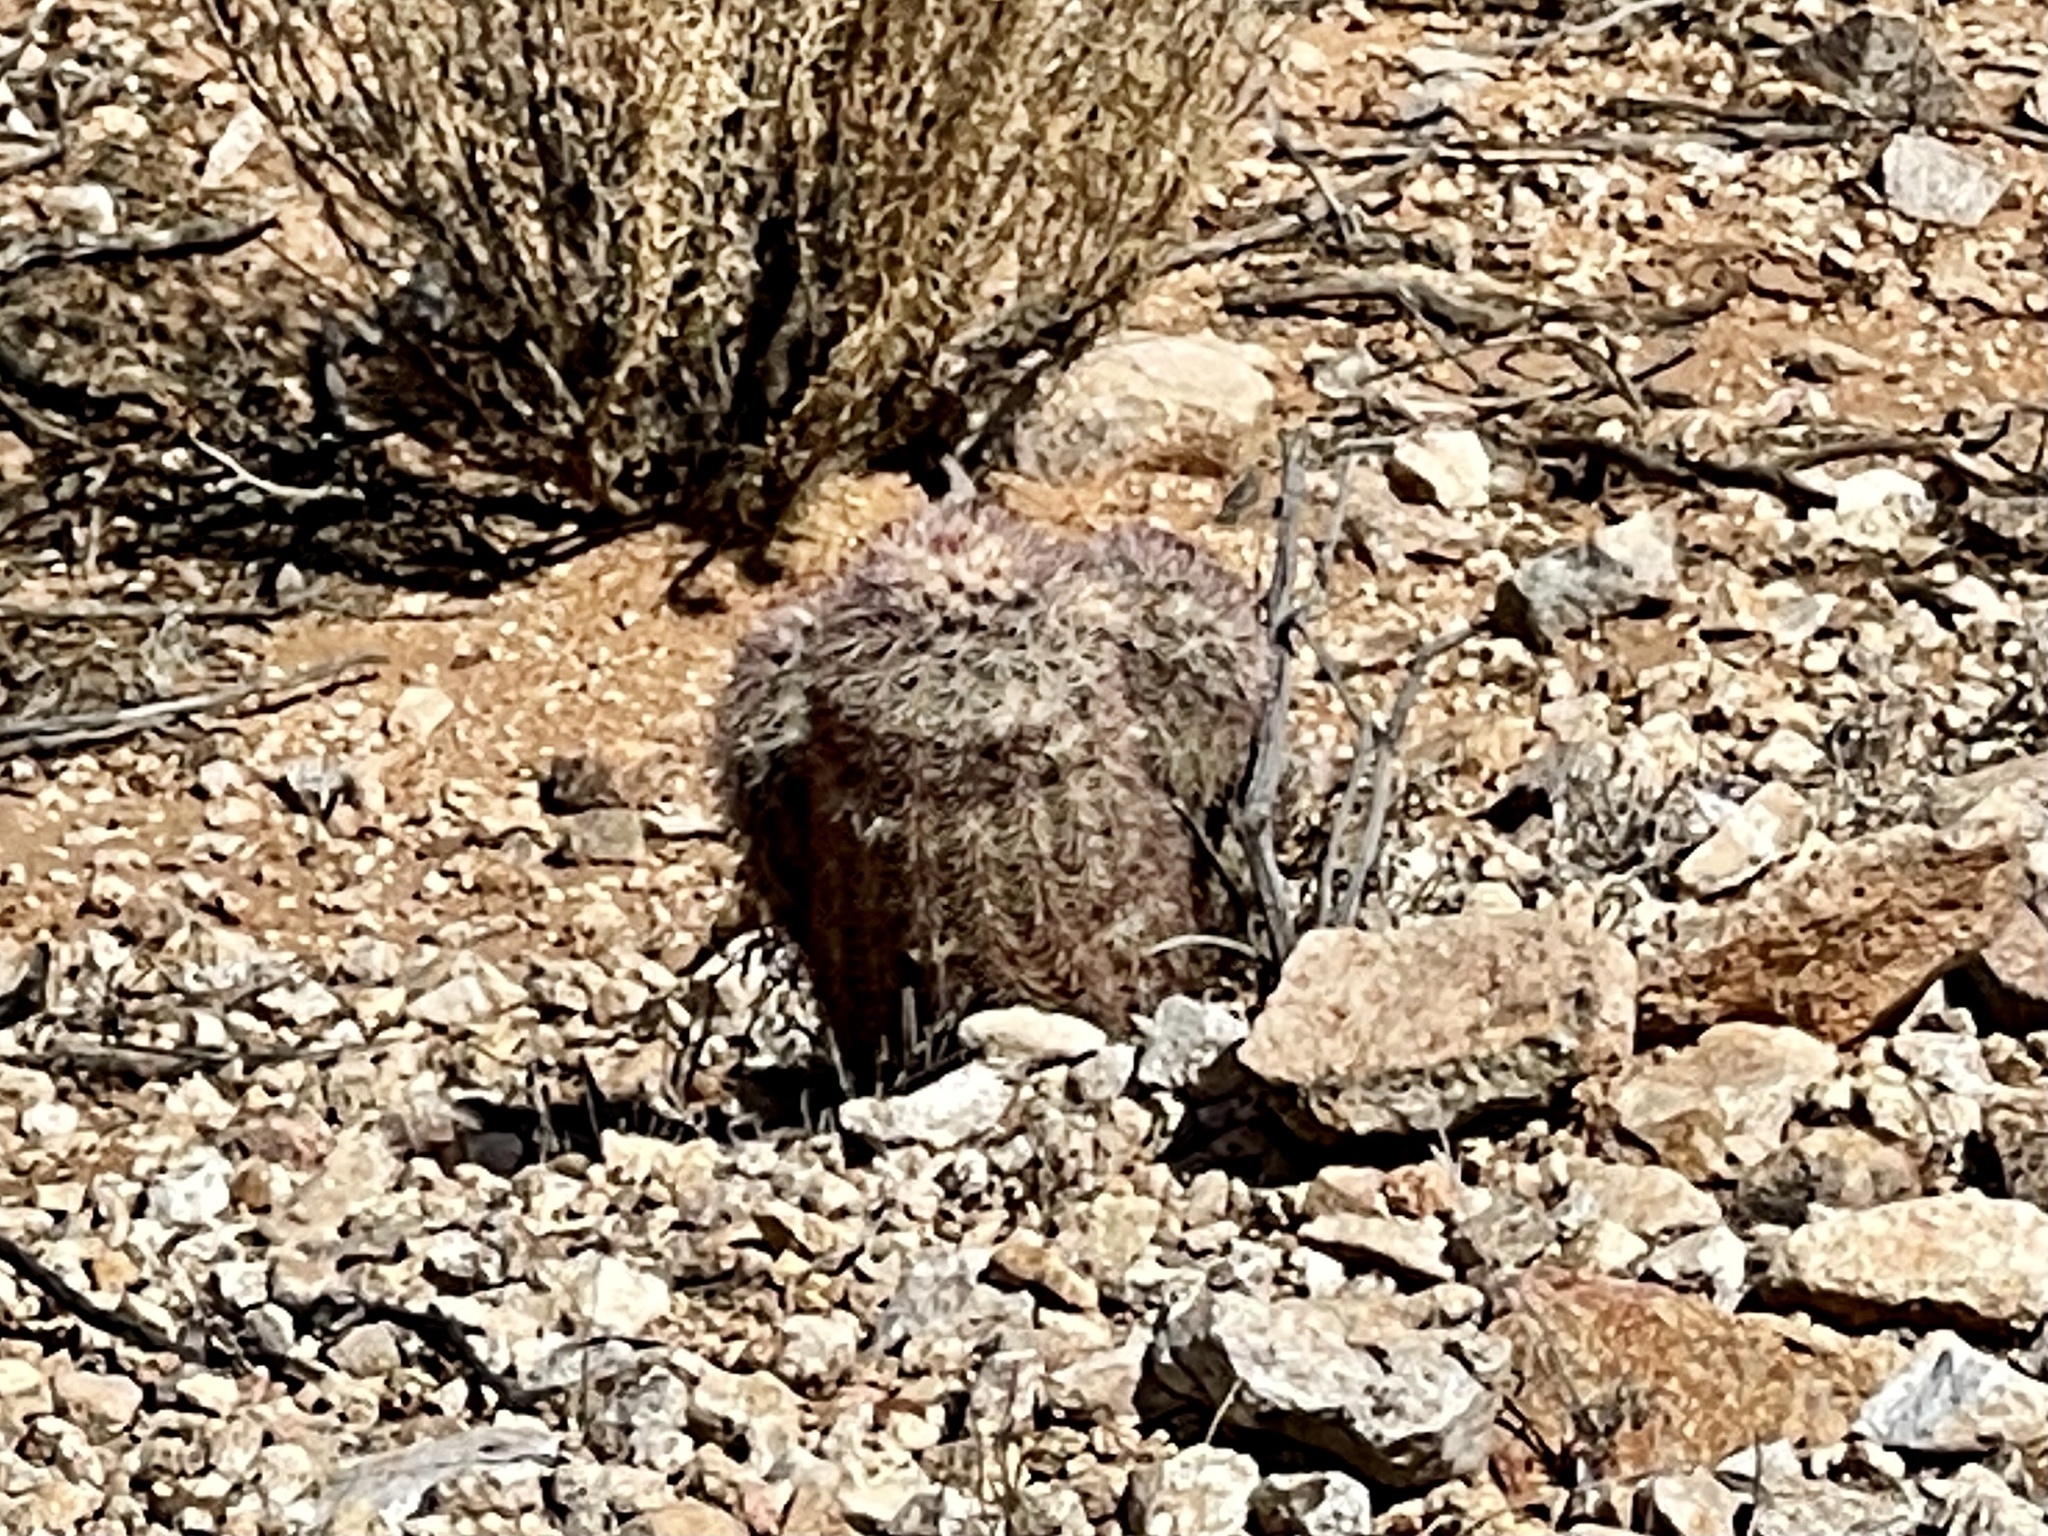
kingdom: Plantae
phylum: Tracheophyta
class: Magnoliopsida
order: Caryophyllales
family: Cactaceae
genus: Echinocereus
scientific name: Echinocereus dasyacanthus
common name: Spiny hedgehog cactus
